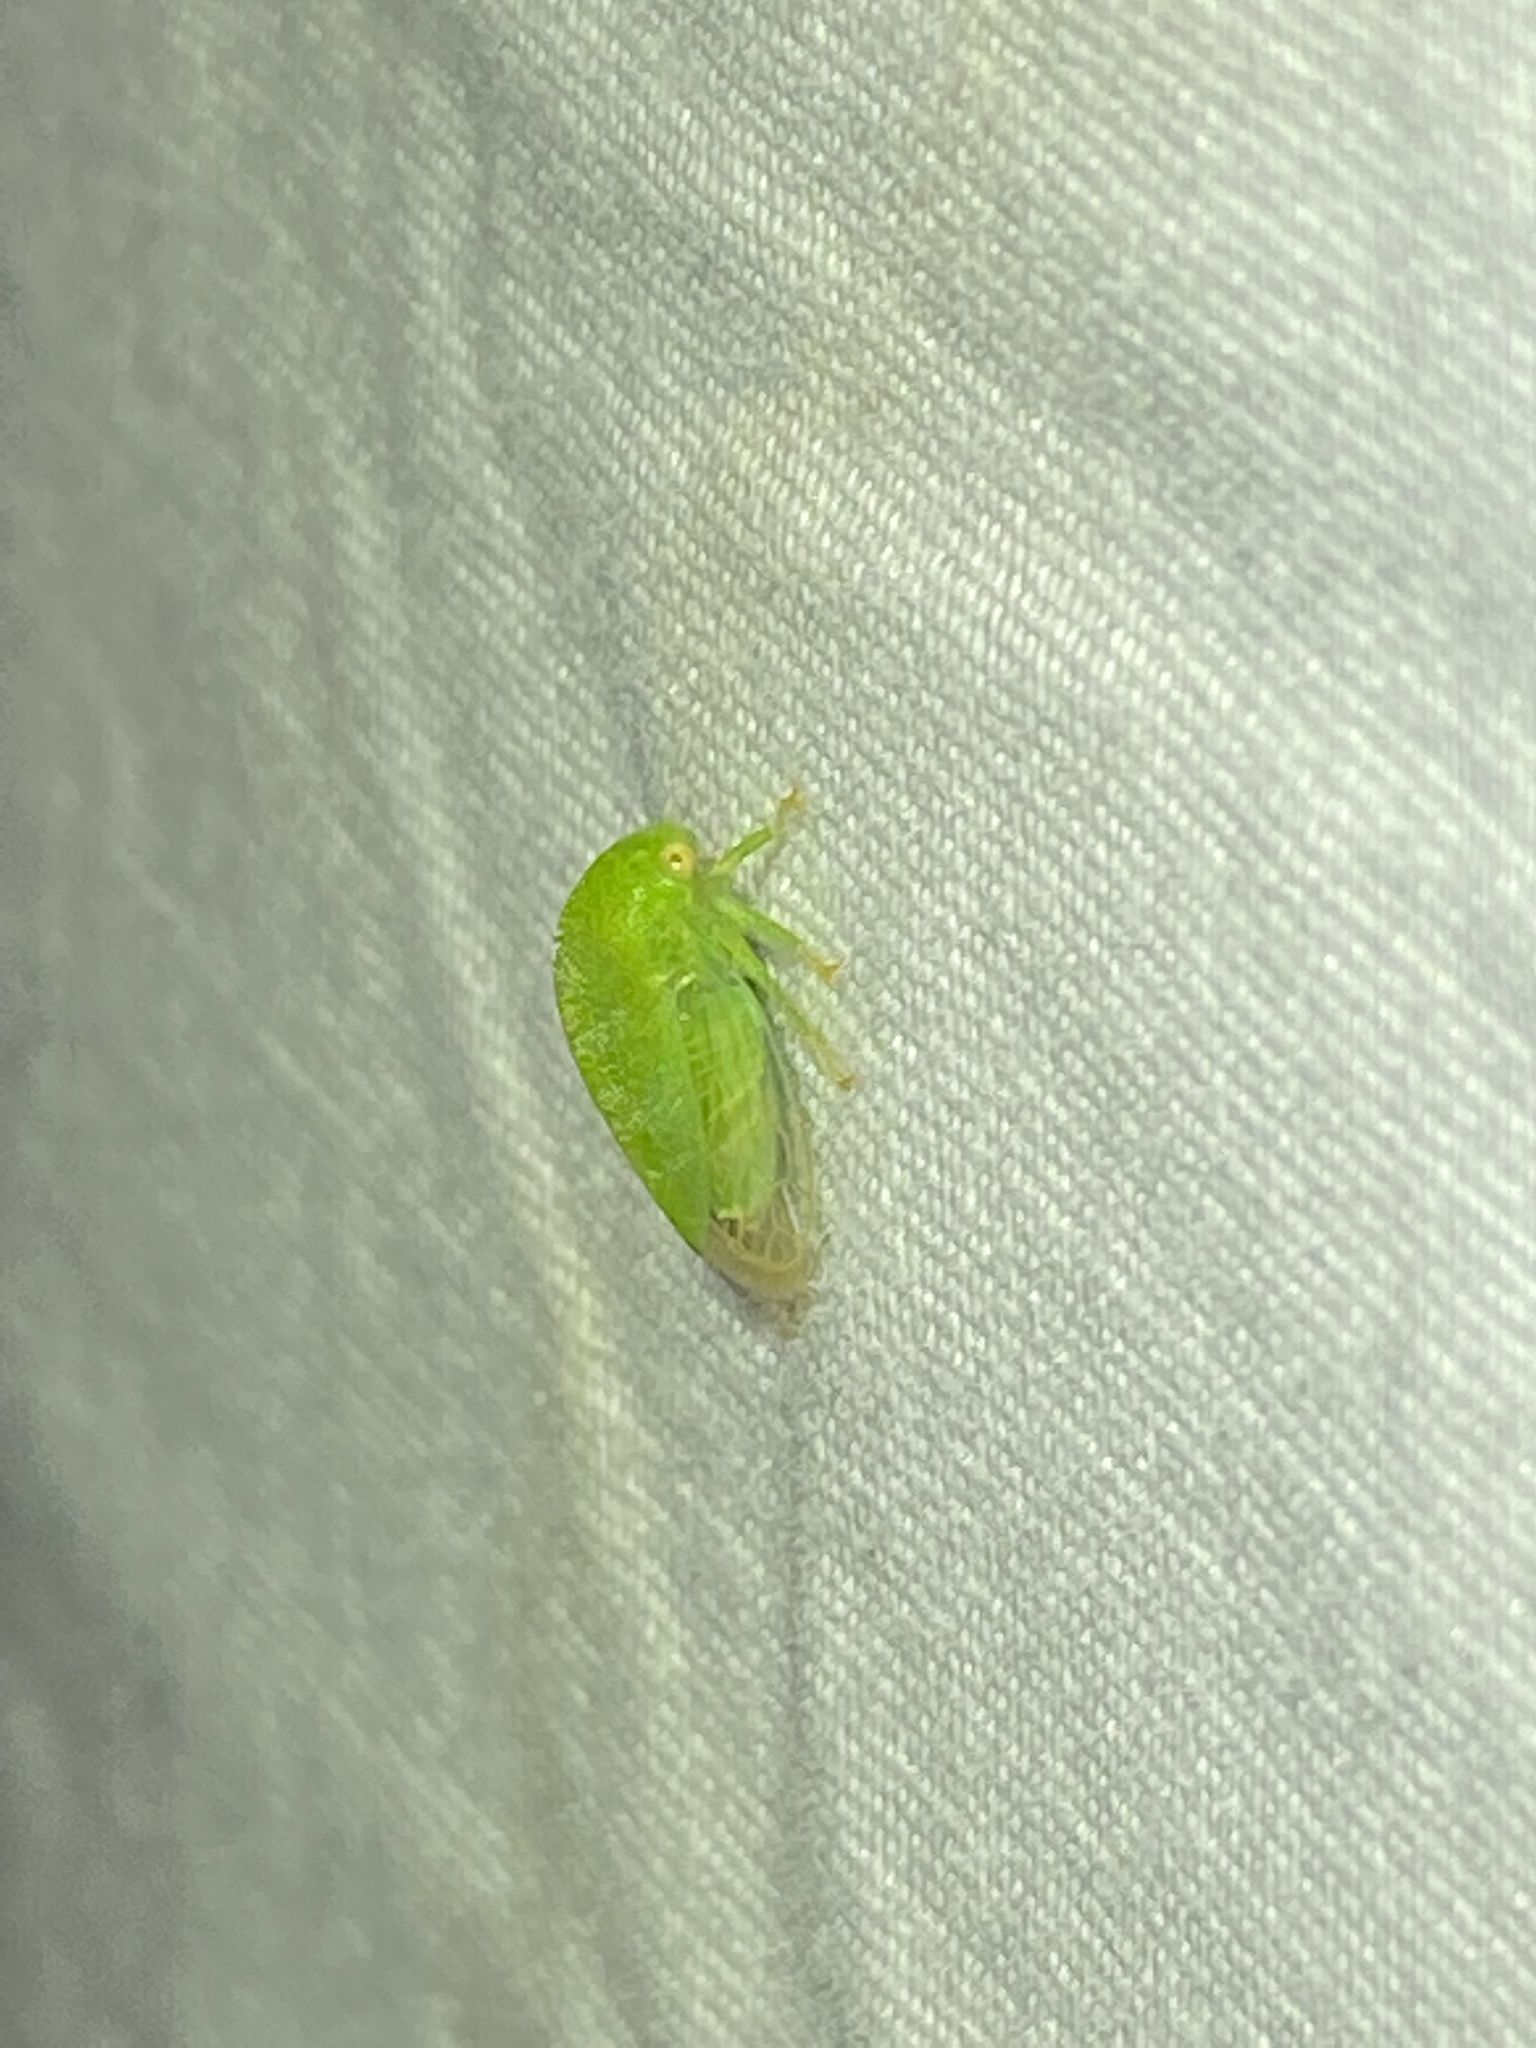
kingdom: Animalia
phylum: Arthropoda
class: Insecta
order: Hemiptera
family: Membracidae
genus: Atymna
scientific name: Atymna querci
